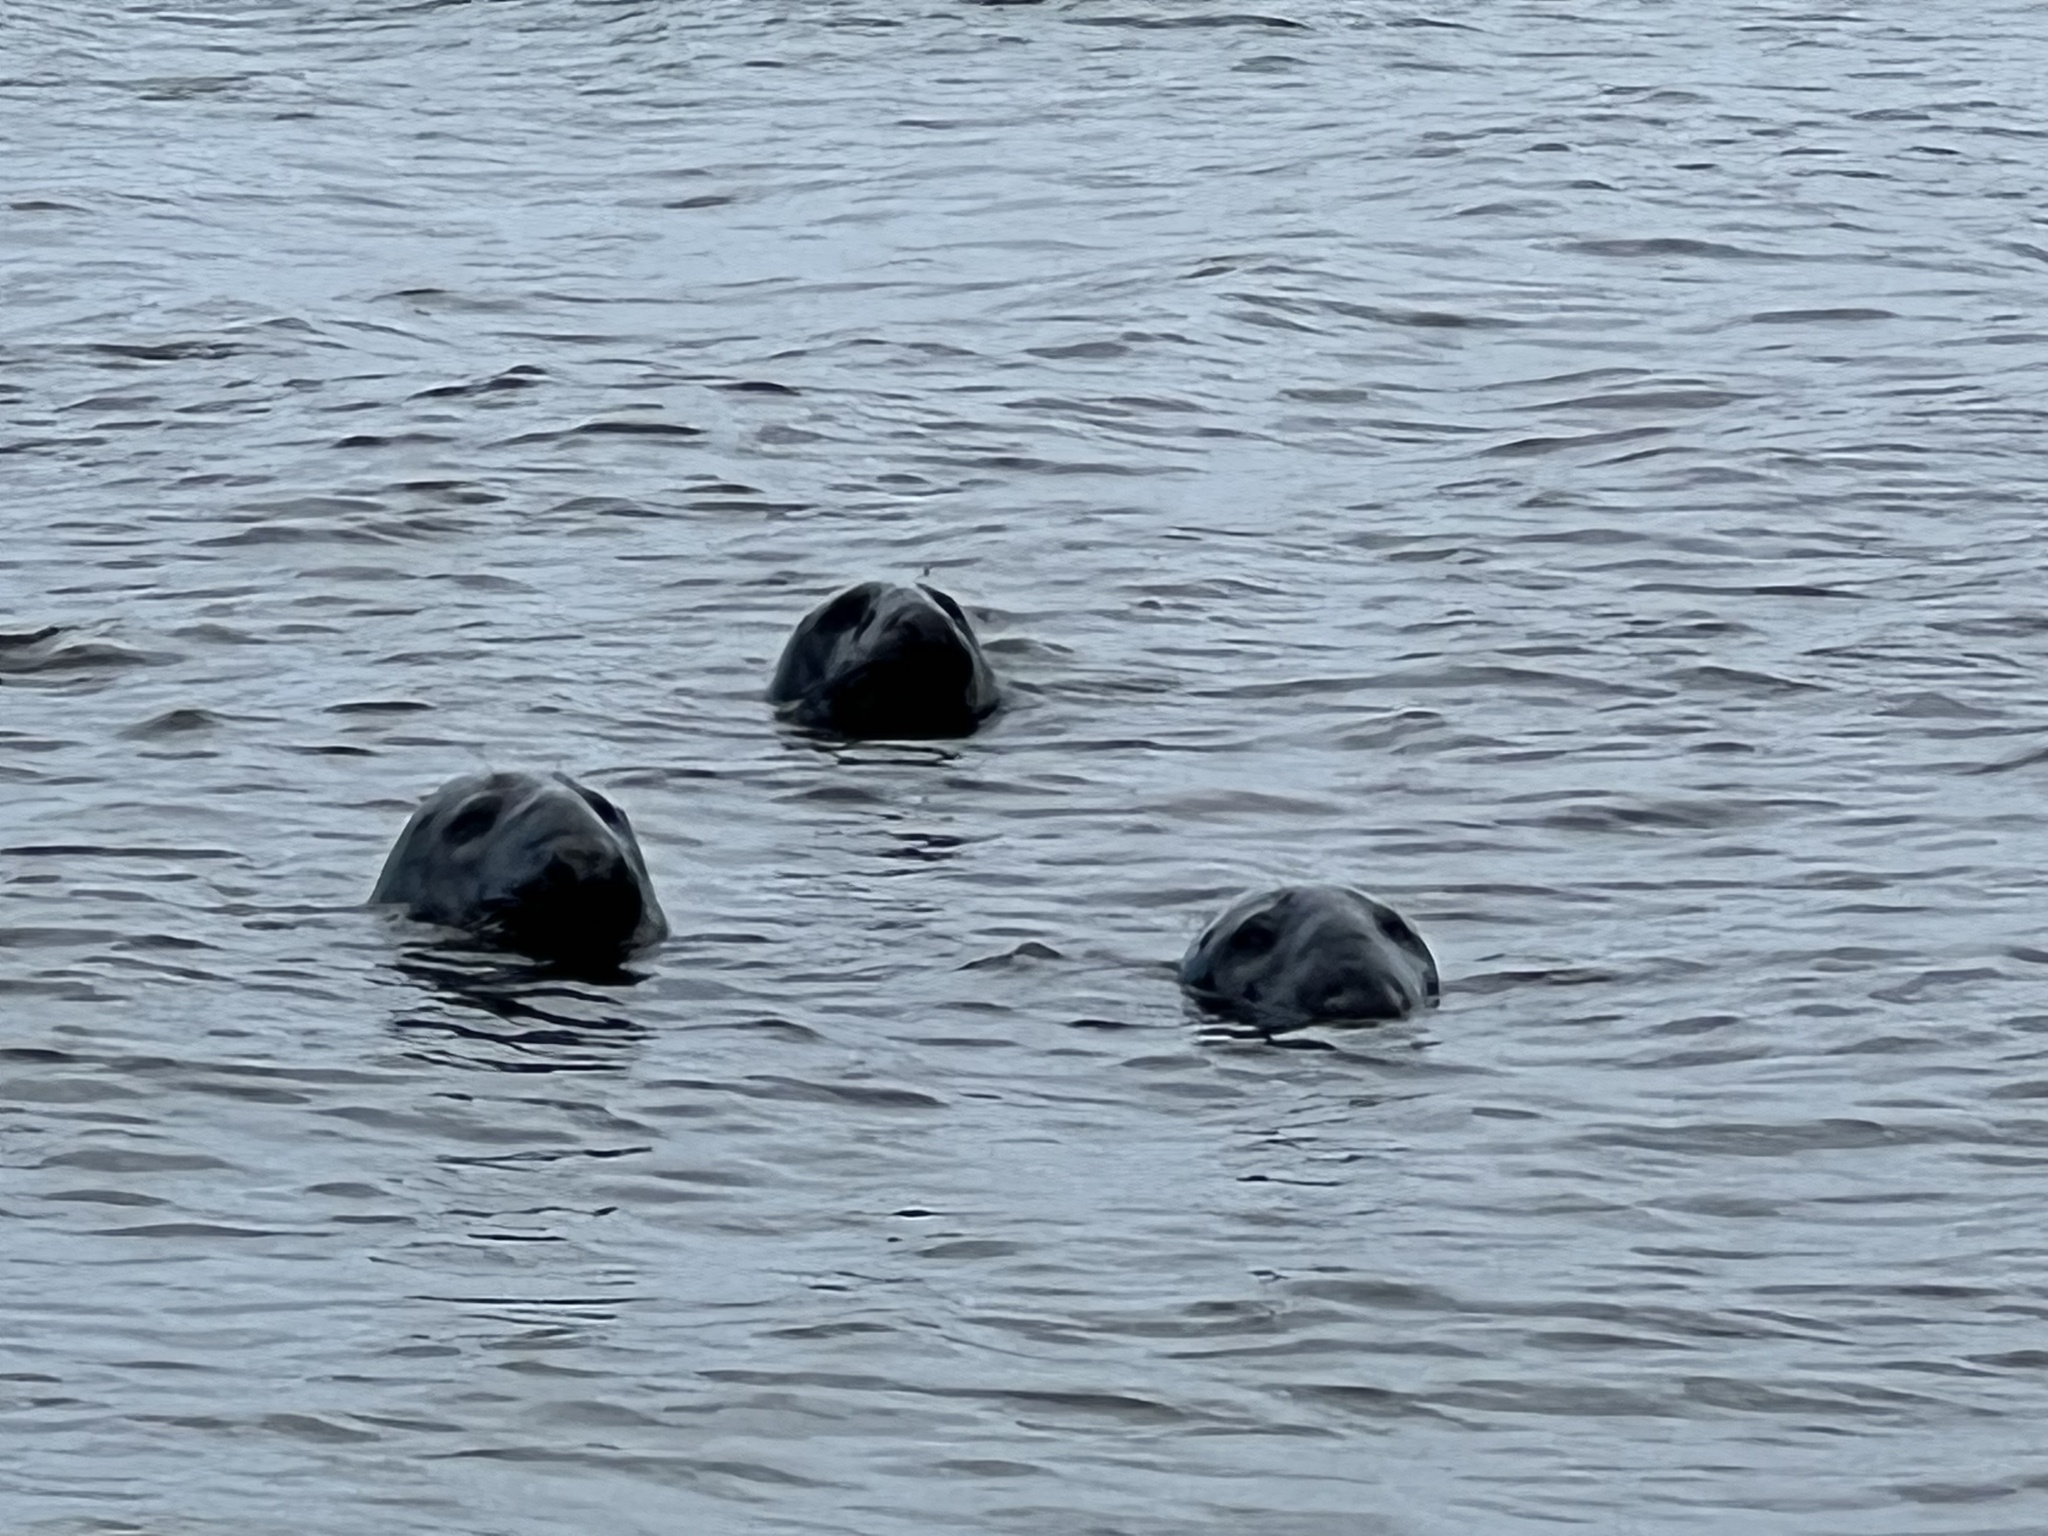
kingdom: Animalia
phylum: Chordata
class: Mammalia
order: Carnivora
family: Phocidae
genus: Halichoerus
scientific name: Halichoerus grypus
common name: Grey seal
